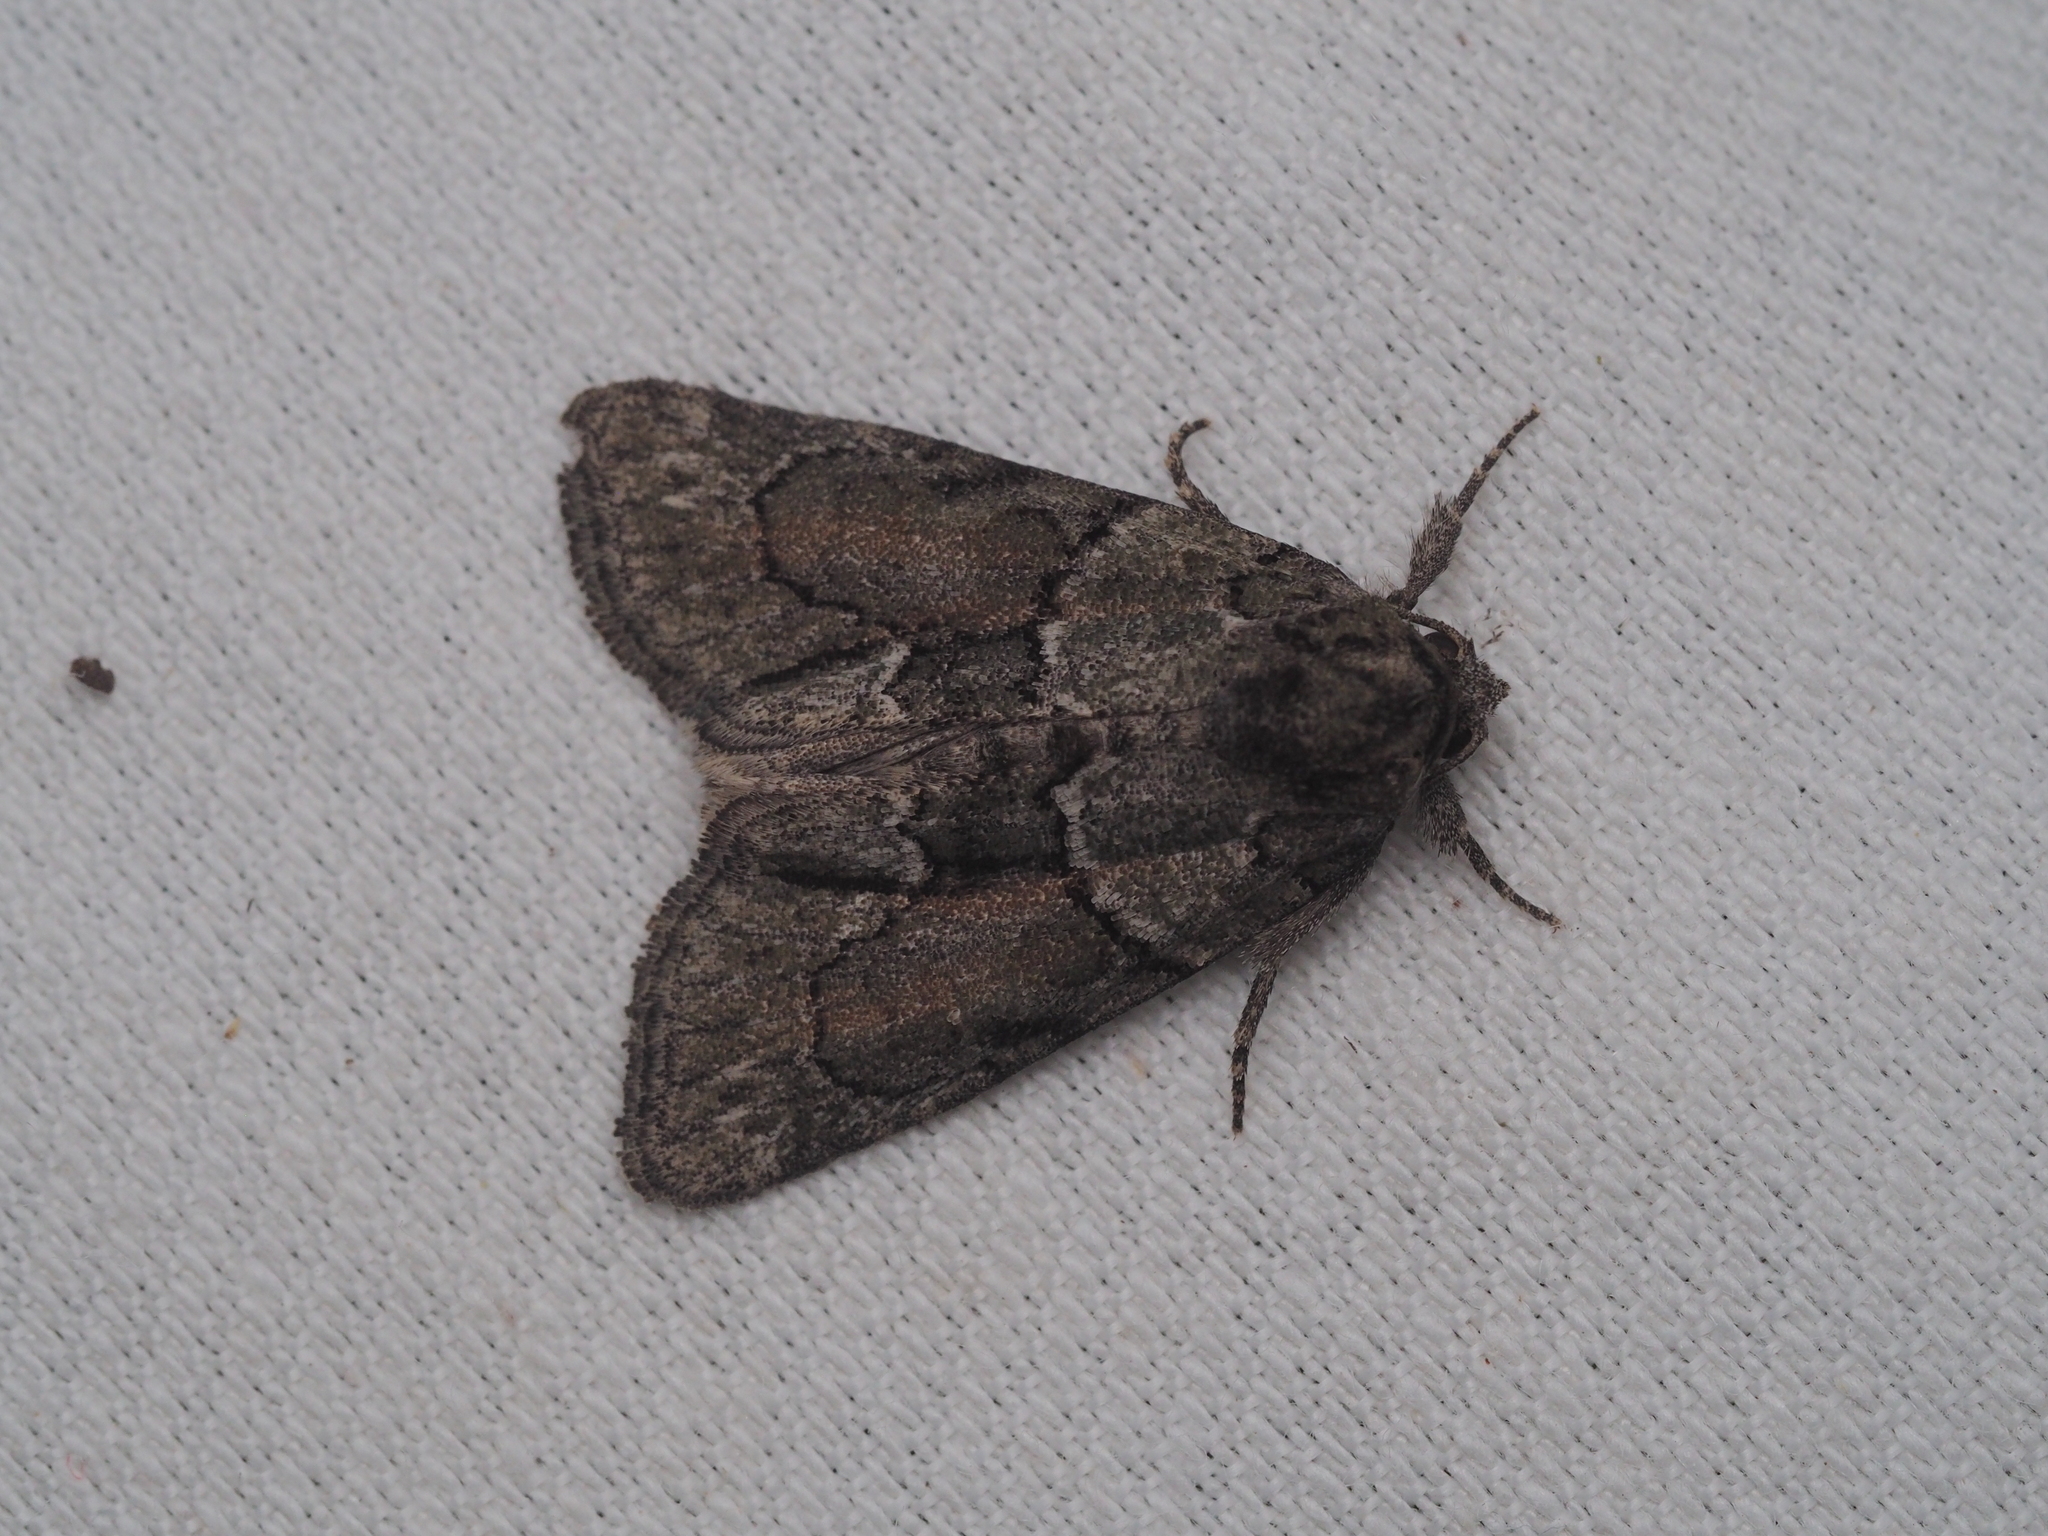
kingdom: Animalia
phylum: Arthropoda
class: Insecta
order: Lepidoptera
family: Noctuidae
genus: Cryphia
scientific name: Cryphia fraudatricula
